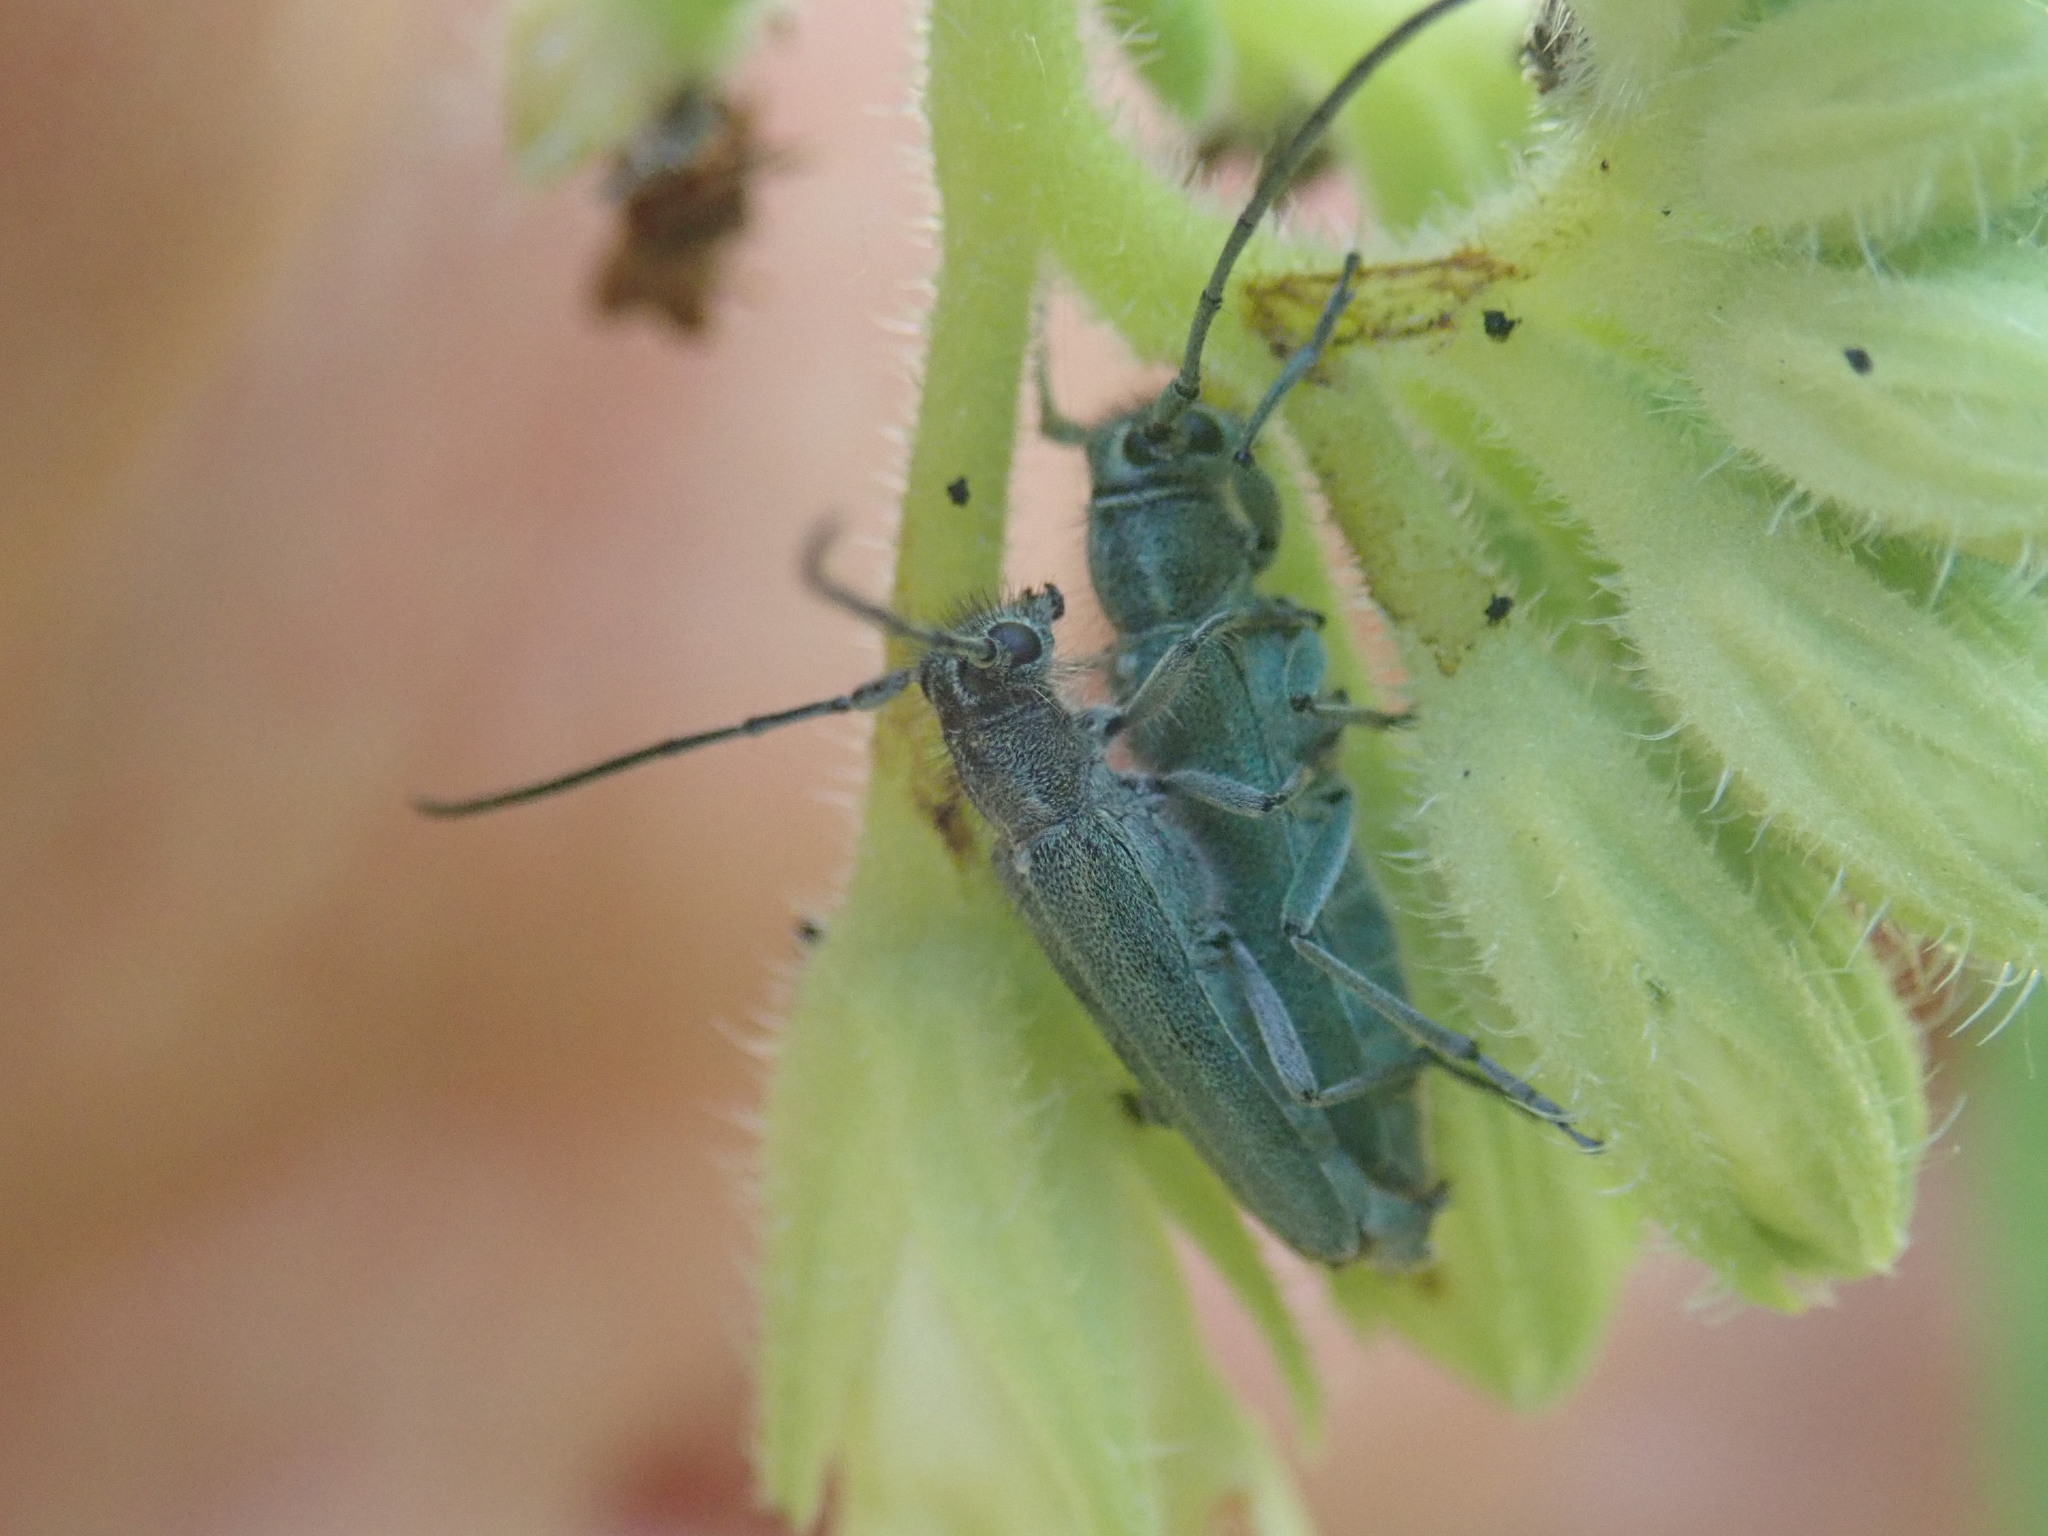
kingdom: Animalia
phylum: Arthropoda
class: Insecta
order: Coleoptera
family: Cerambycidae
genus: Phytoecia
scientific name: Phytoecia coerulescens
